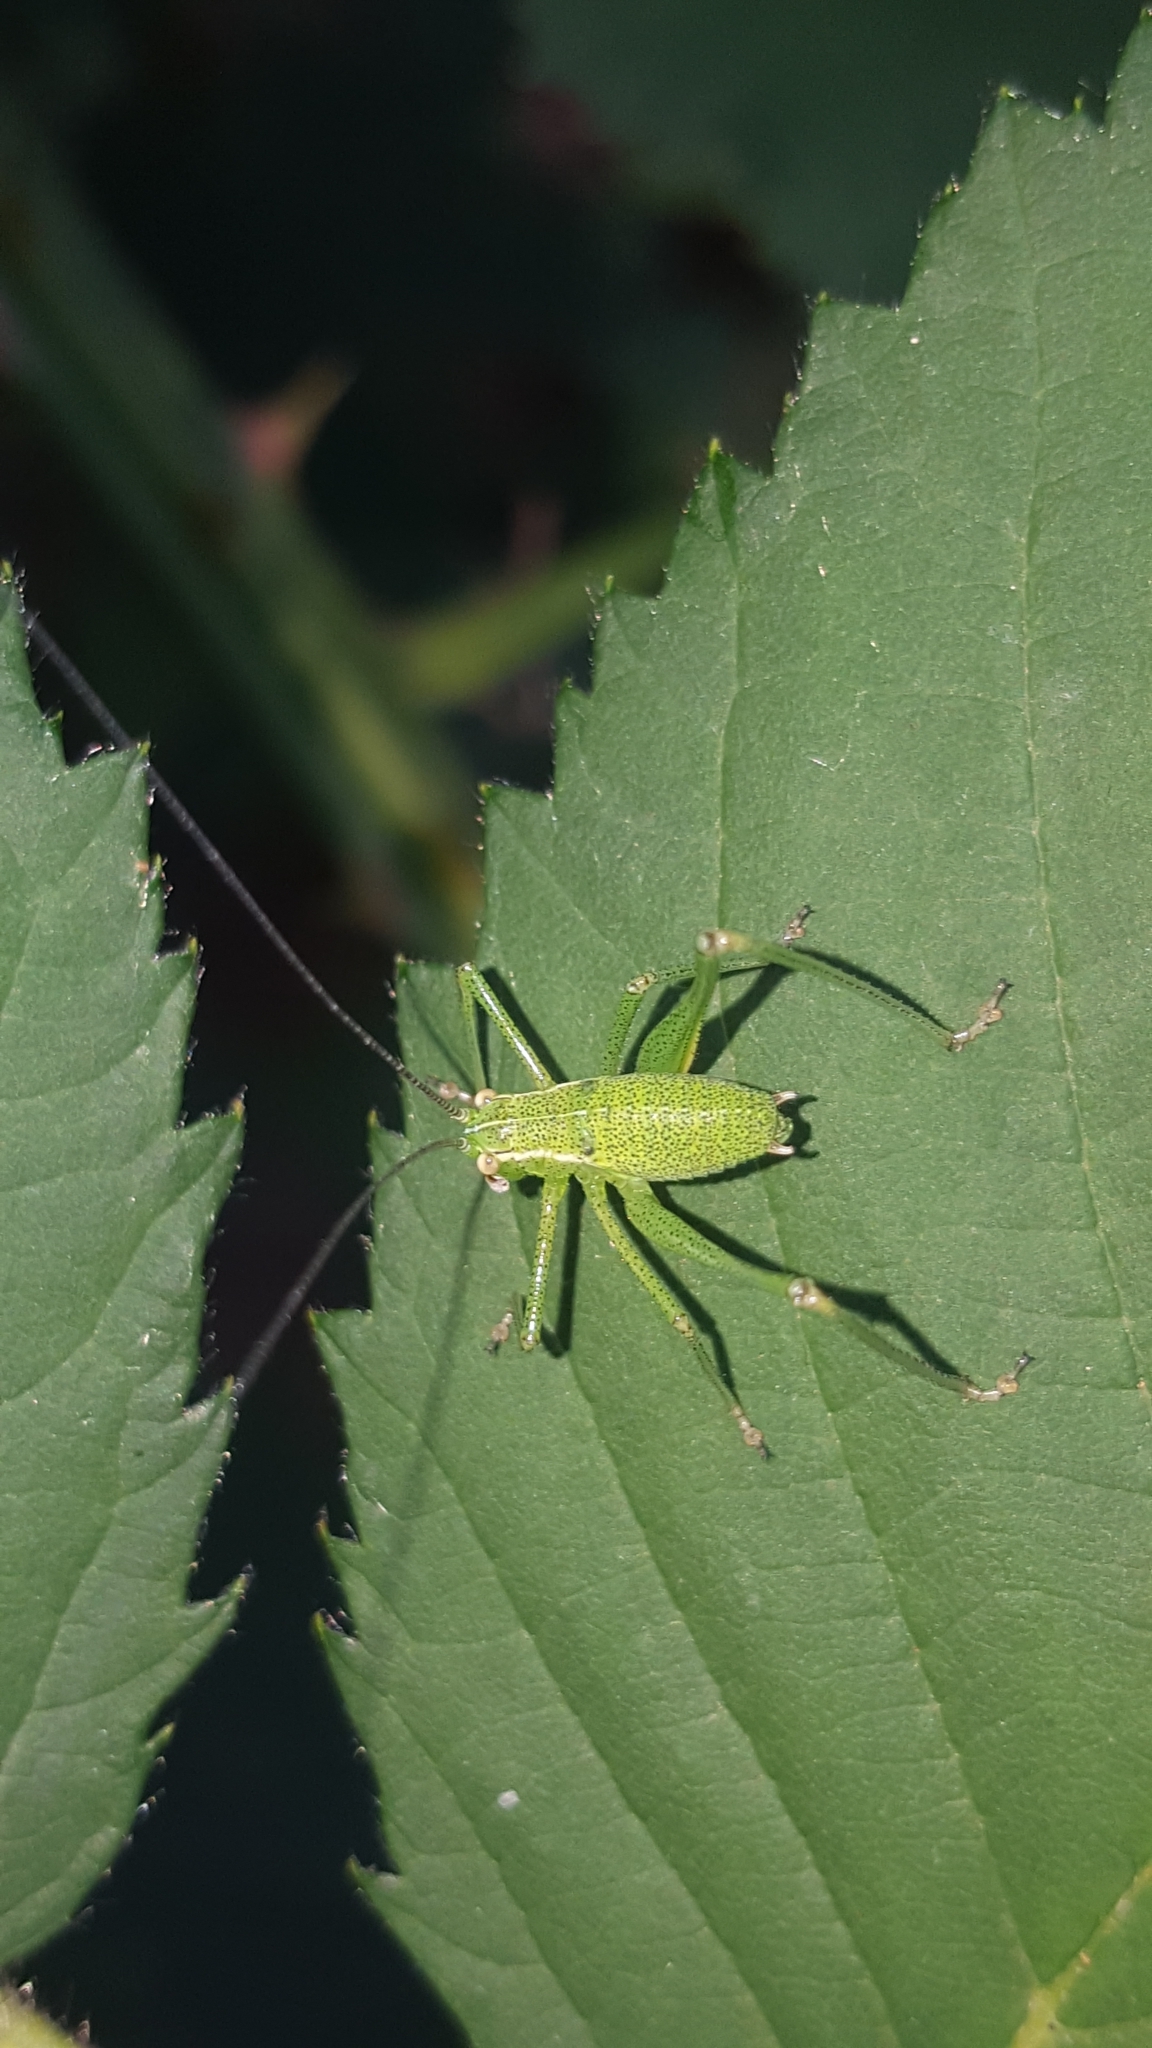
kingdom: Animalia
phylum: Arthropoda
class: Insecta
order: Orthoptera
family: Tettigoniidae
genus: Leptophyes
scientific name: Leptophyes punctatissima
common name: Speckled bush-cricket
